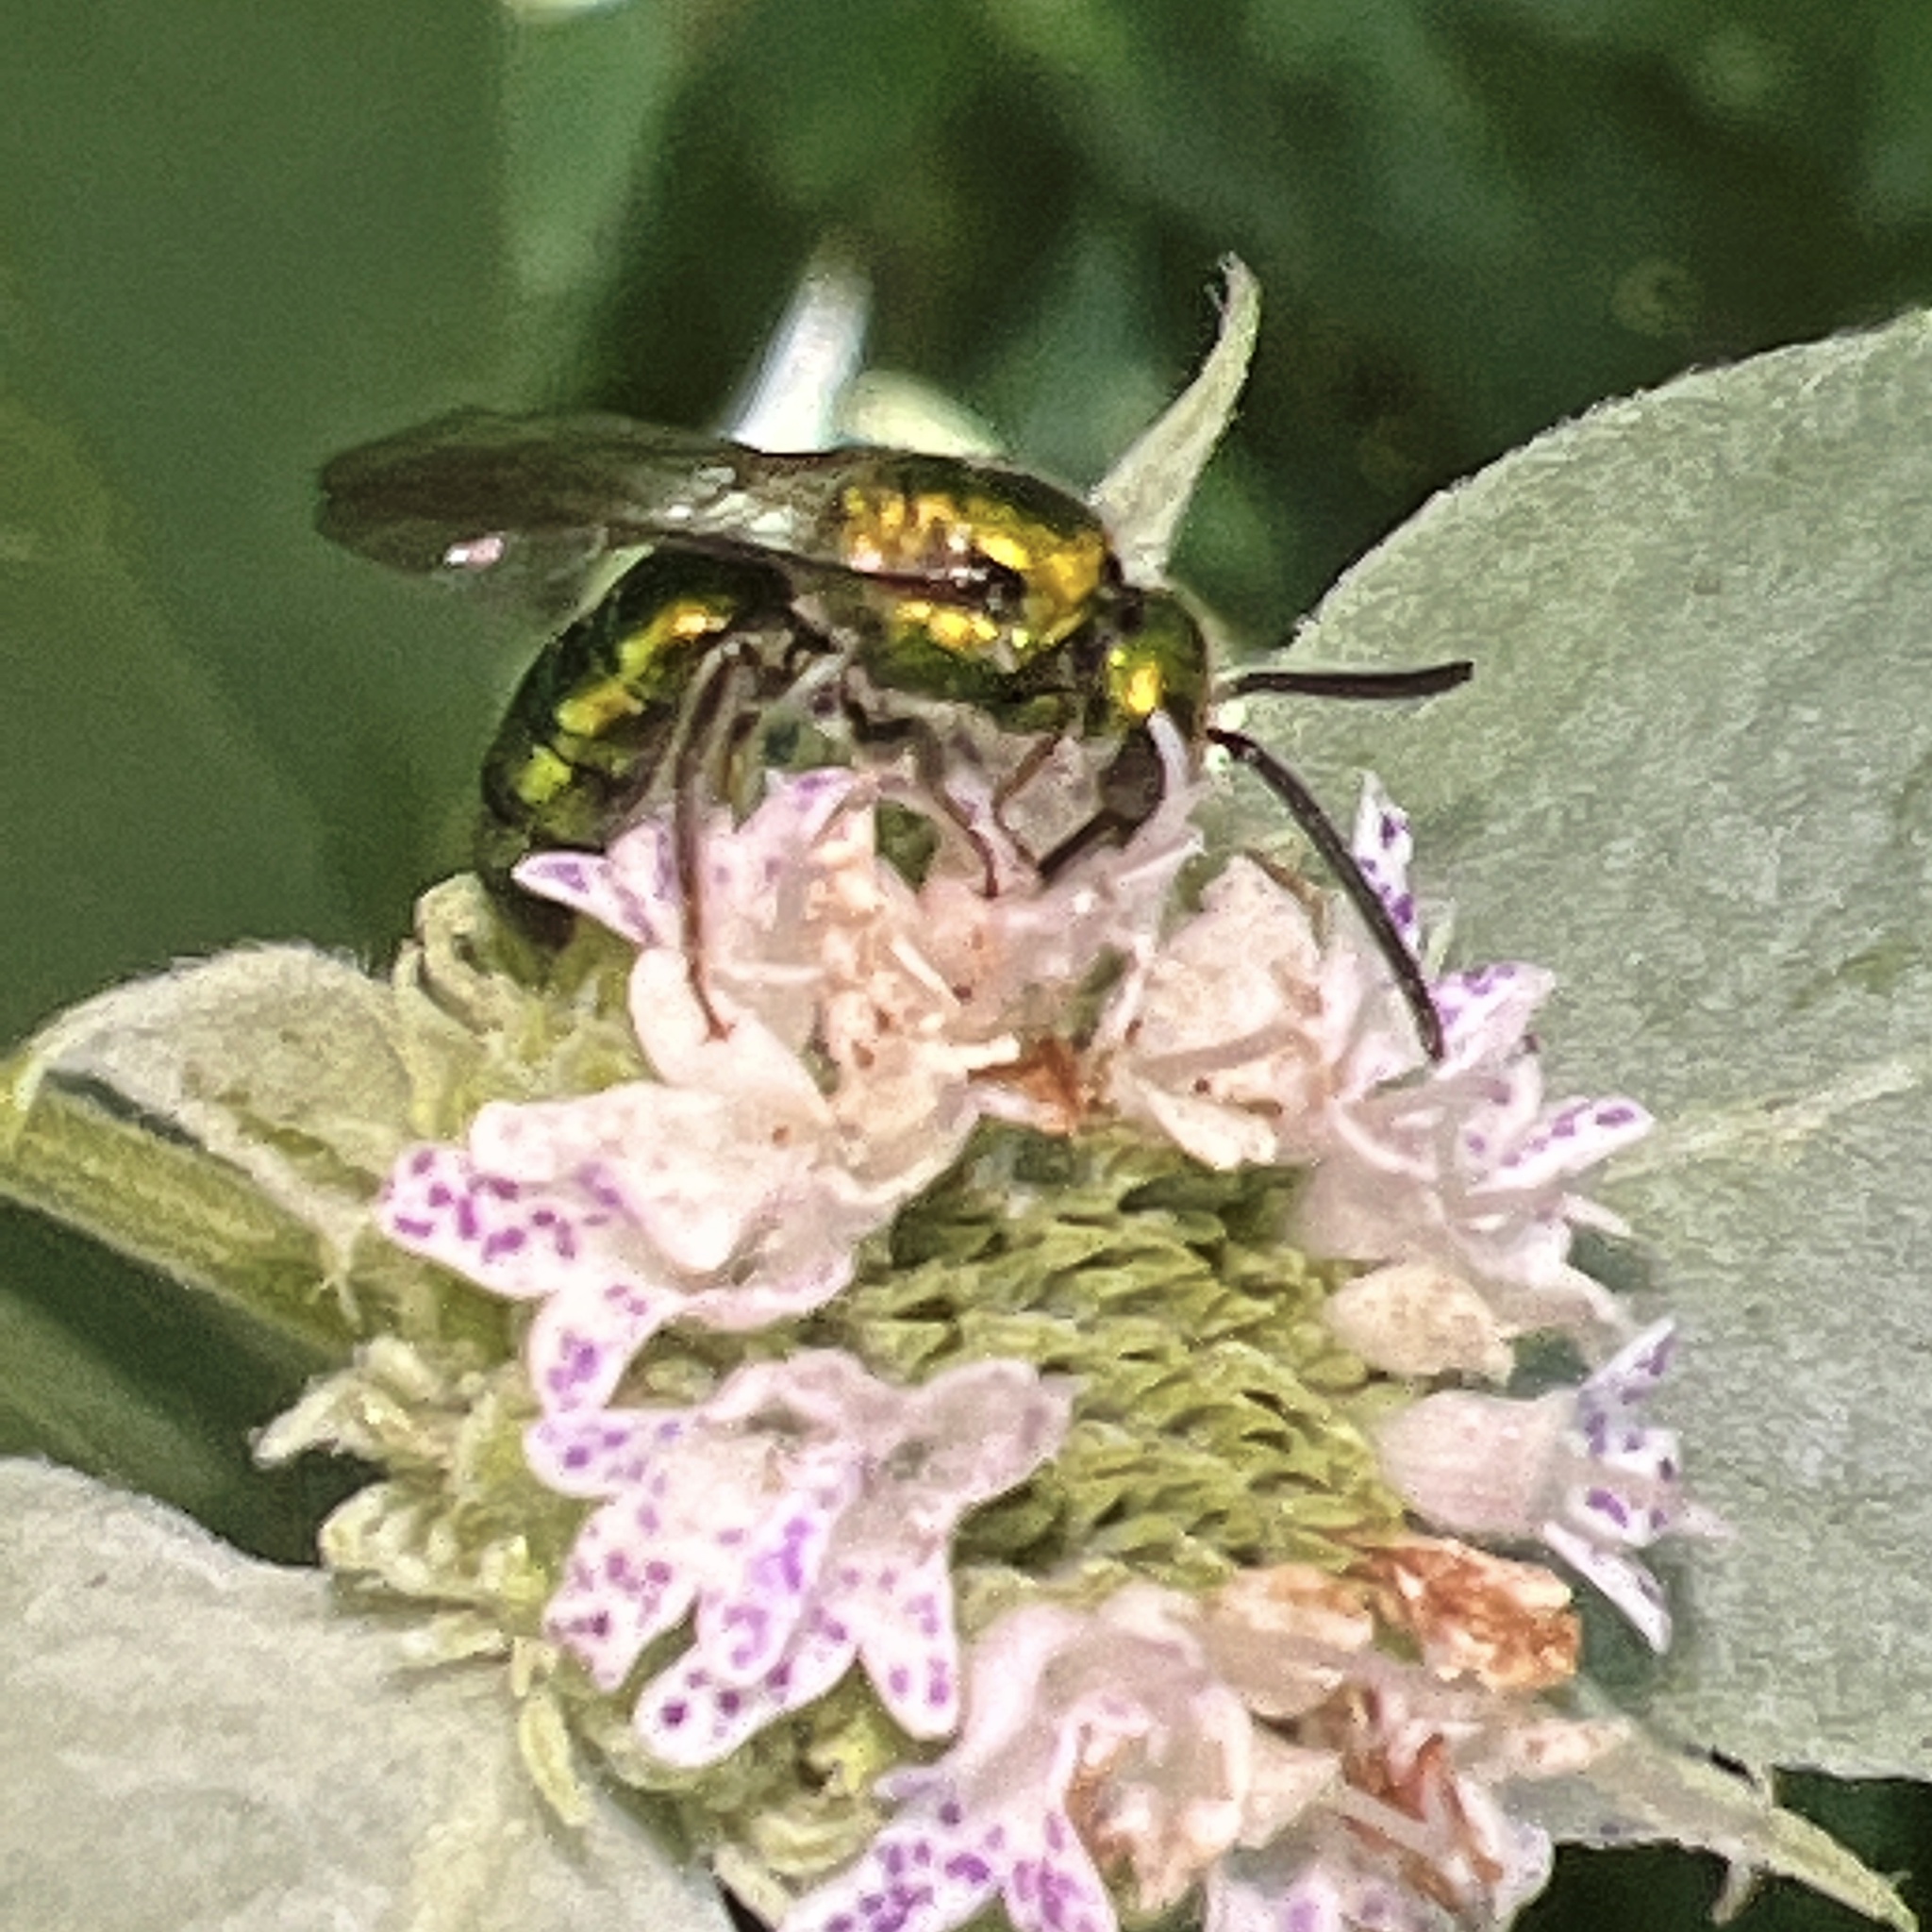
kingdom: Animalia
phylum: Arthropoda
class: Insecta
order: Hymenoptera
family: Halictidae
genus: Augochlora
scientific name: Augochlora pura
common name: Pure green sweat bee
